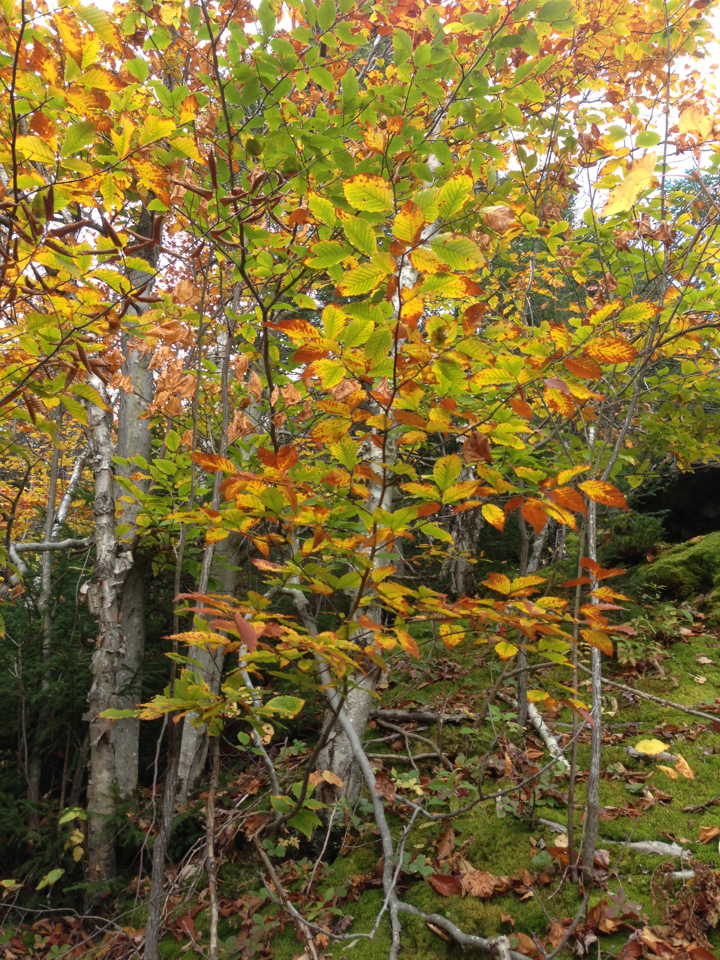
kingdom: Plantae
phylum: Tracheophyta
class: Magnoliopsida
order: Fagales
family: Fagaceae
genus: Fagus
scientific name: Fagus grandifolia
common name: American beech
